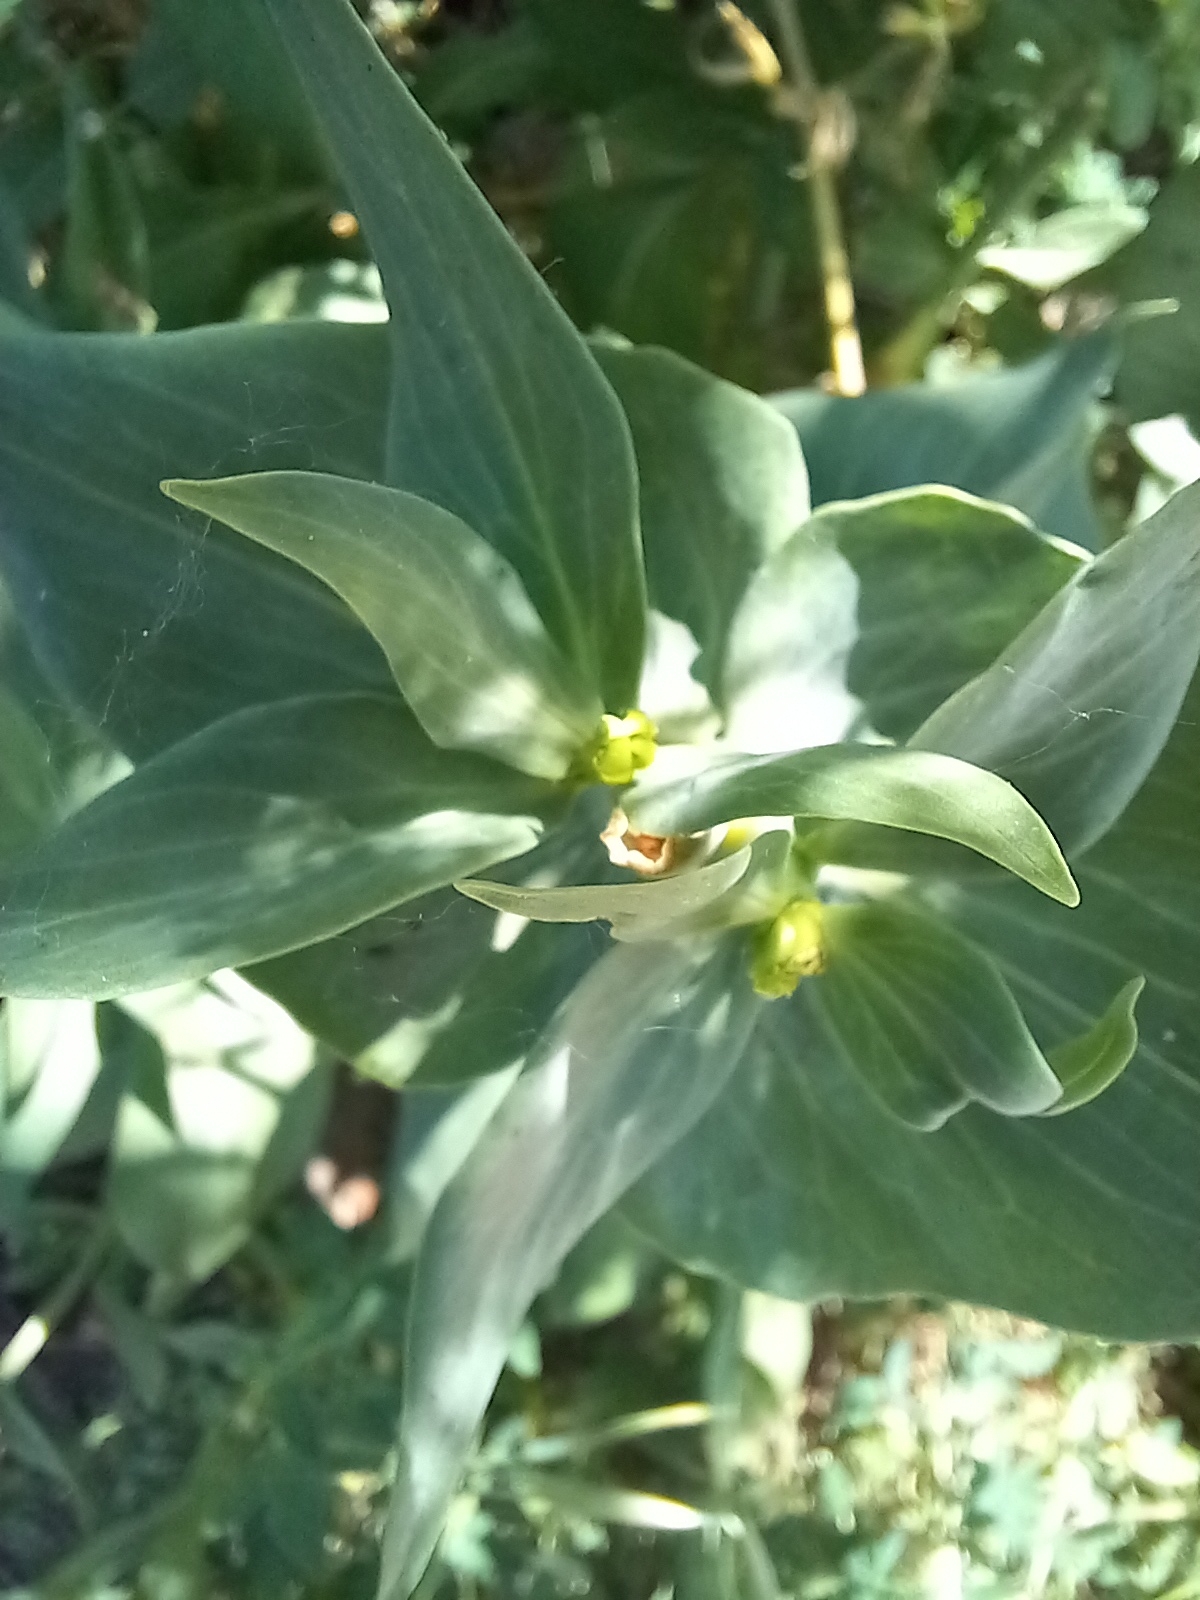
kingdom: Plantae
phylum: Tracheophyta
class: Magnoliopsida
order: Dipsacales
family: Caprifoliaceae
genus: Centranthus
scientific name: Centranthus ruber
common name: Red valerian
